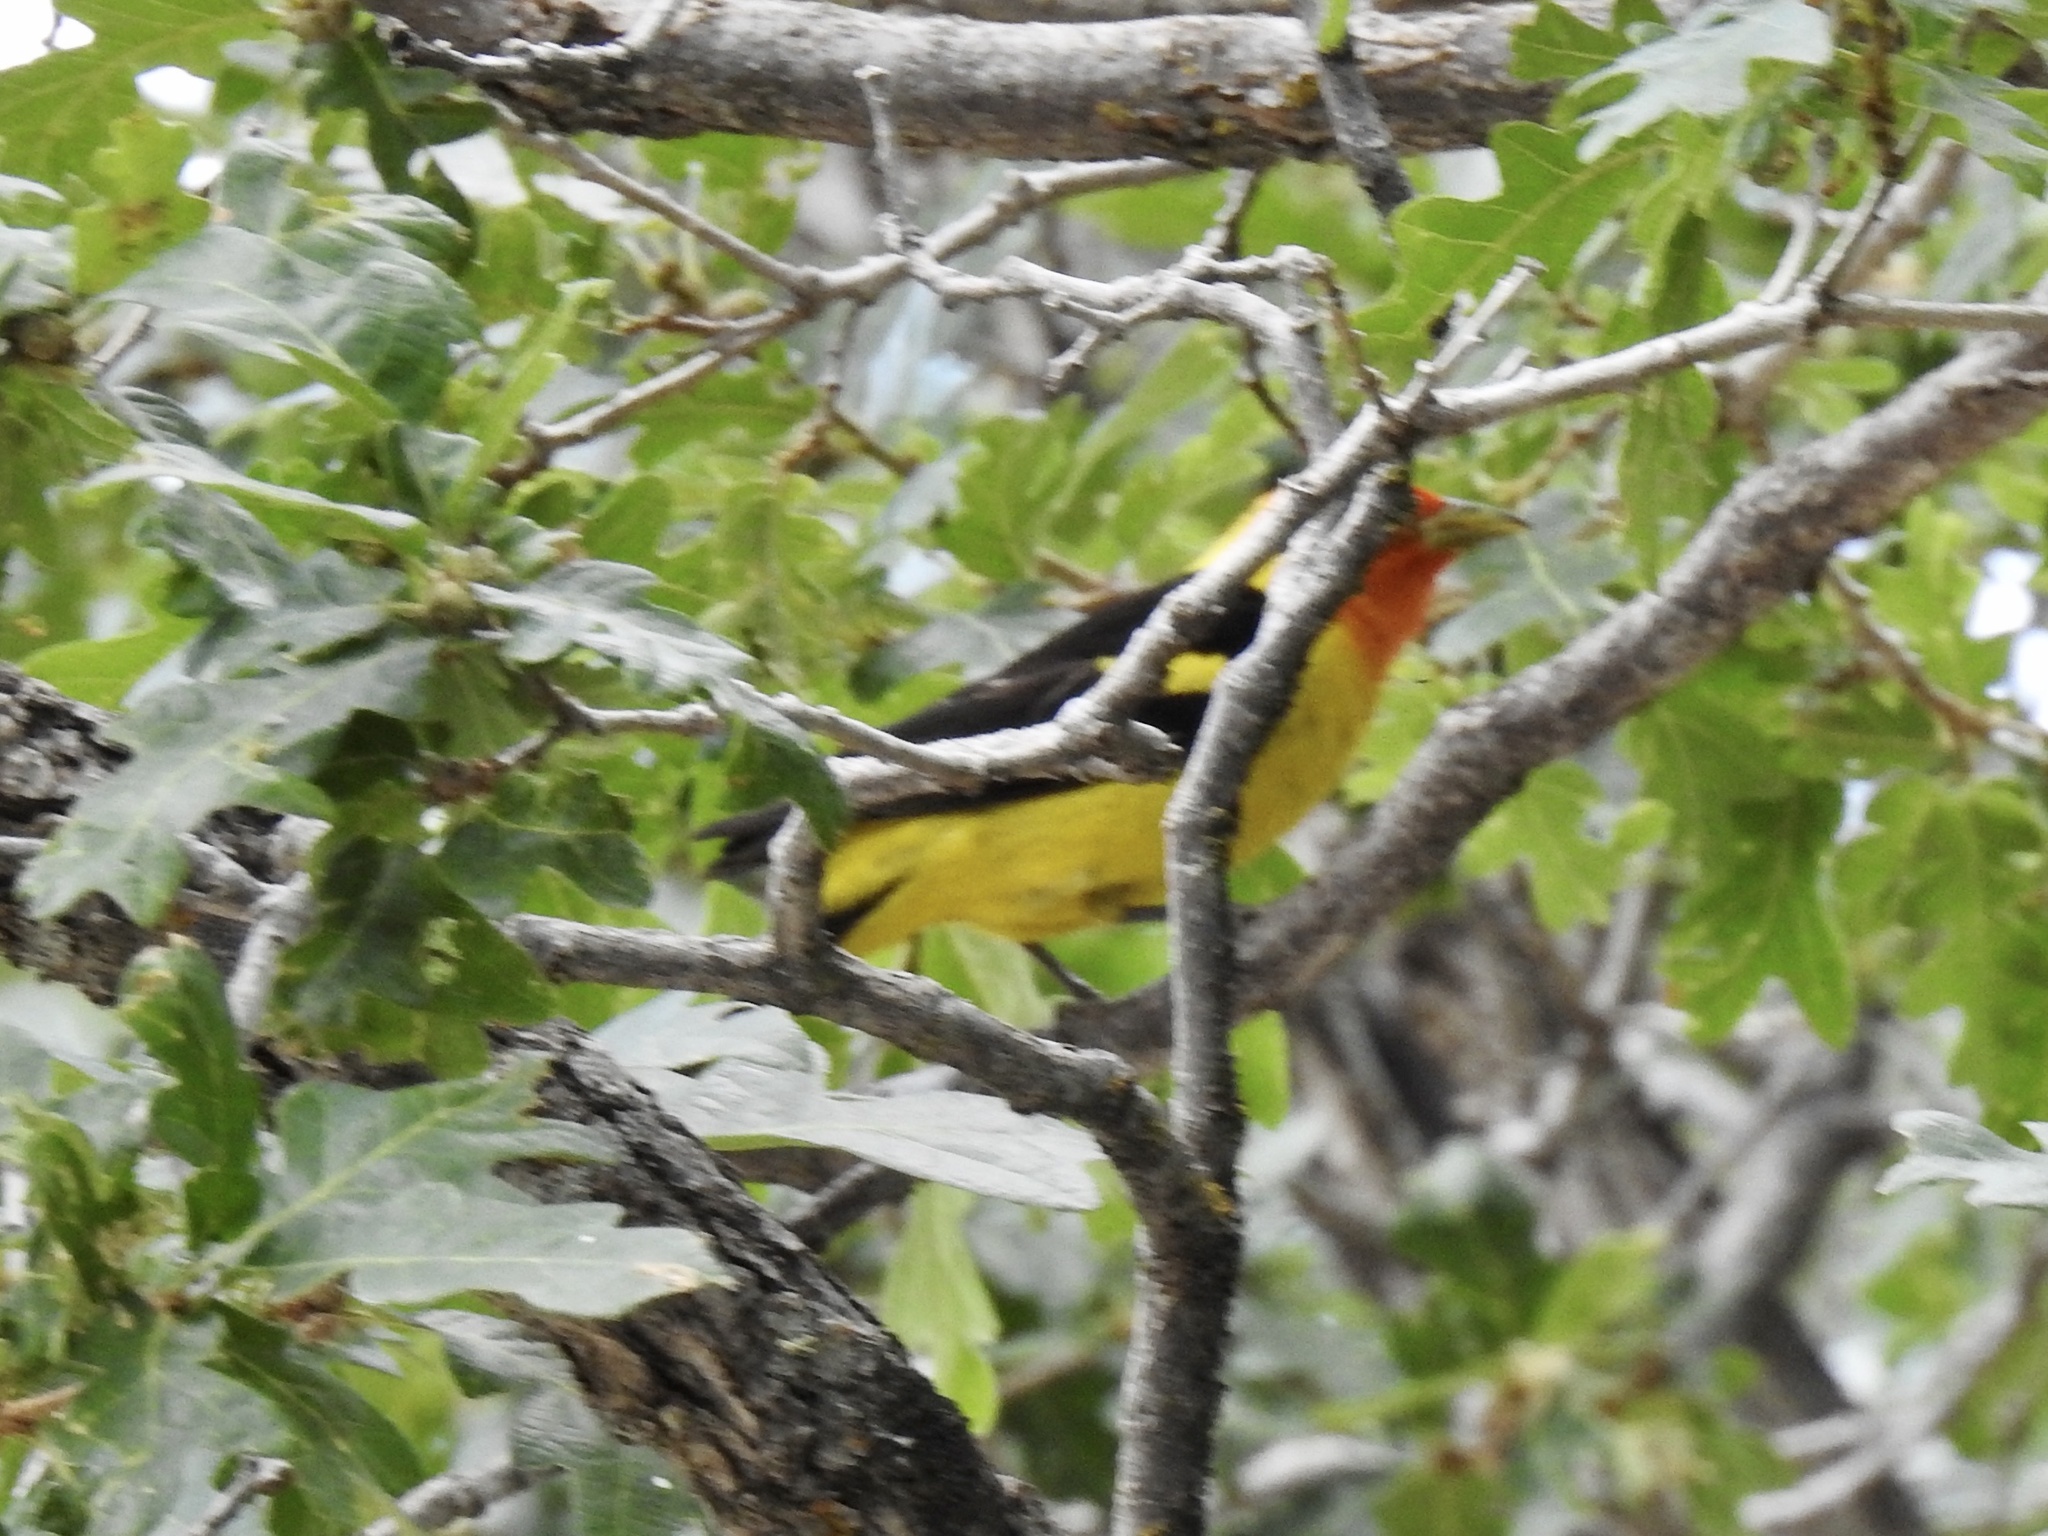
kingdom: Animalia
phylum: Chordata
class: Aves
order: Passeriformes
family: Cardinalidae
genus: Piranga
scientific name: Piranga ludoviciana
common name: Western tanager
